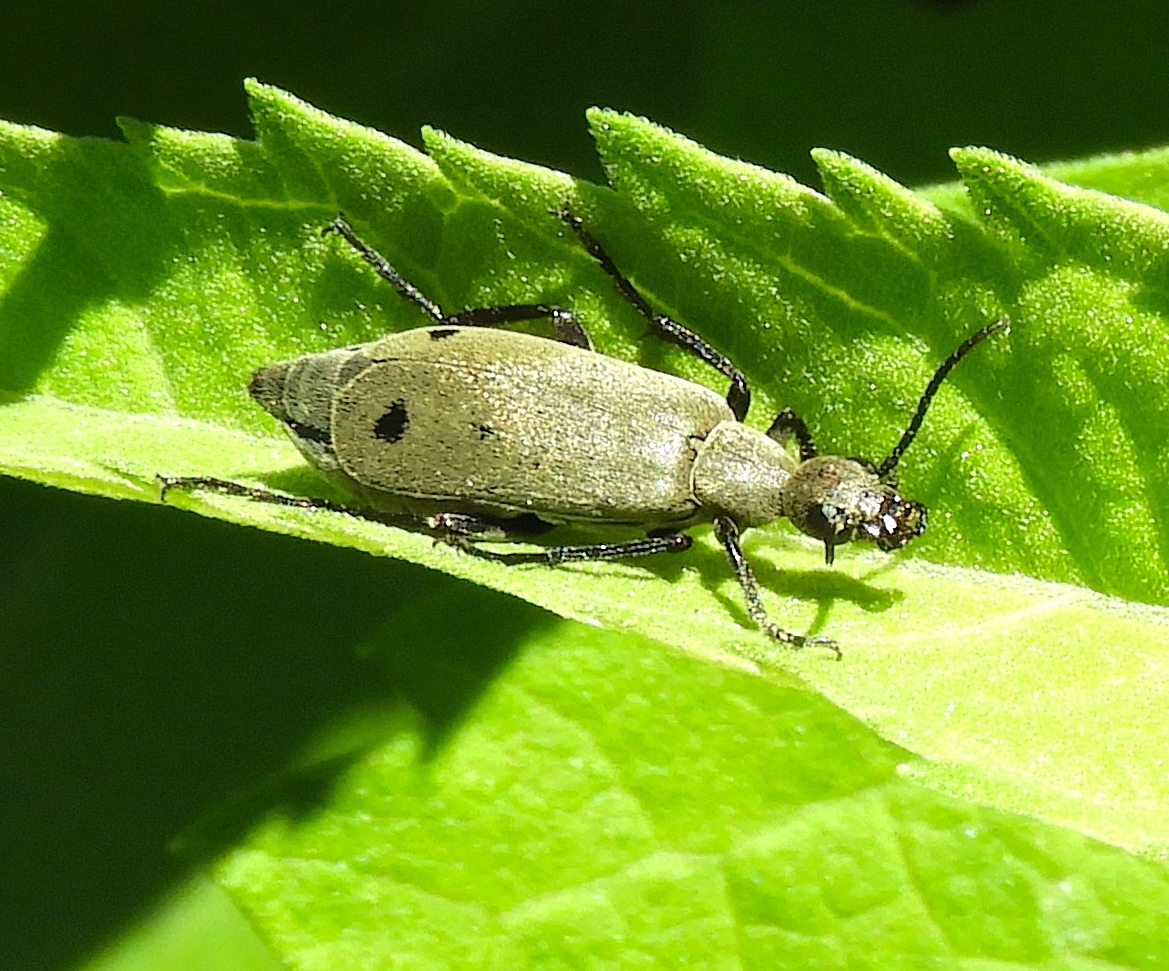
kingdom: Animalia
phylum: Arthropoda
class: Insecta
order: Coleoptera
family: Meloidae
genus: Epicauta
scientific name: Epicauta bipunctata
